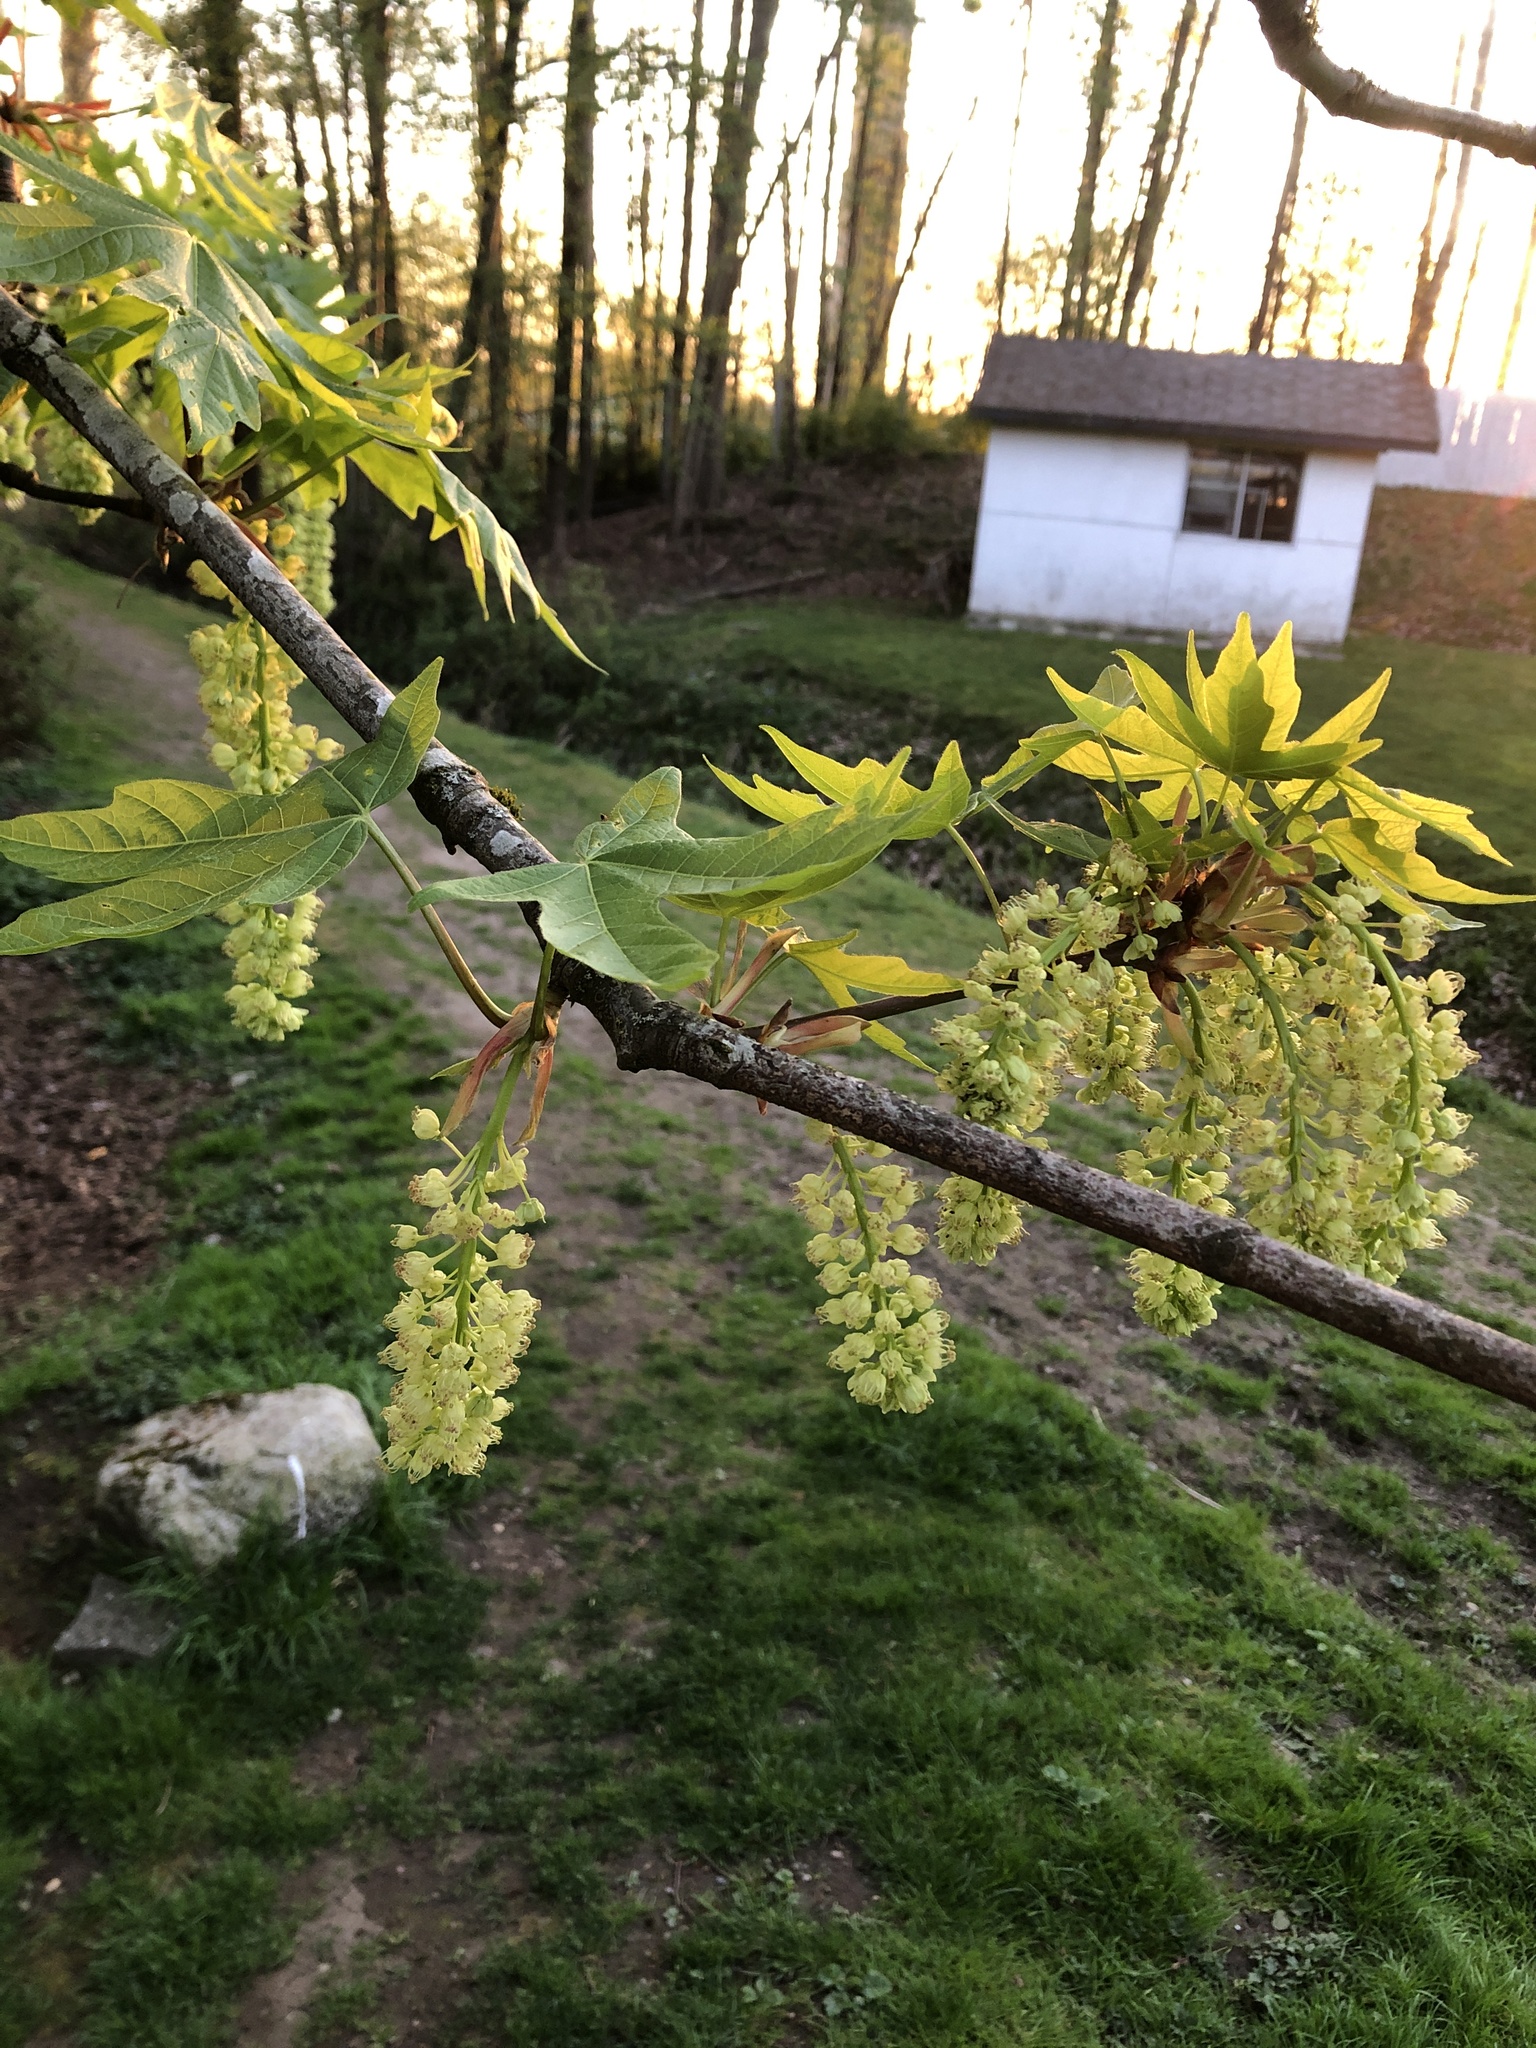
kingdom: Plantae
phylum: Tracheophyta
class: Magnoliopsida
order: Sapindales
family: Sapindaceae
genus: Acer
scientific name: Acer macrophyllum
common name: Oregon maple
